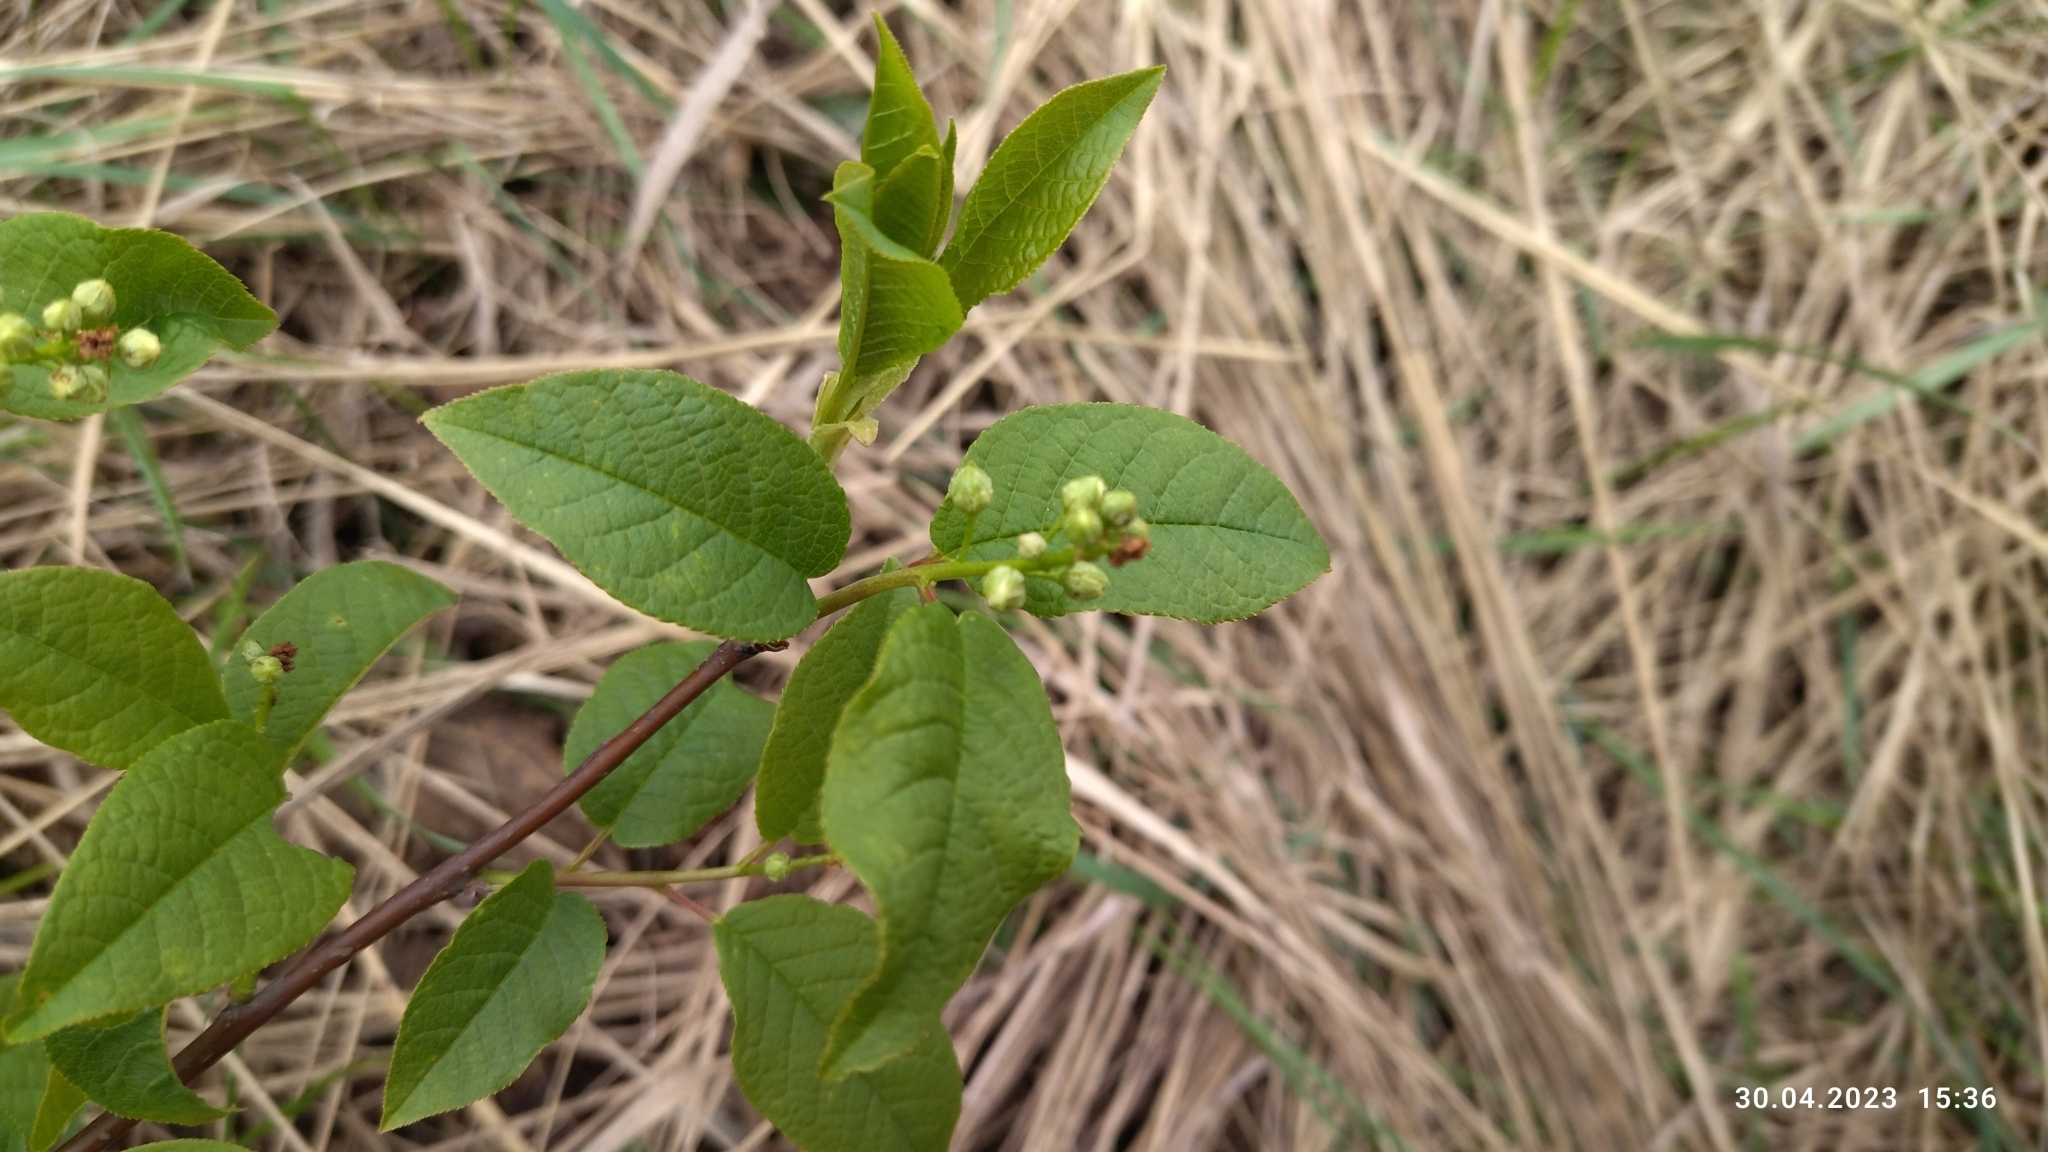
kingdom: Plantae
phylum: Tracheophyta
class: Magnoliopsida
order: Rosales
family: Rosaceae
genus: Prunus
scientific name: Prunus padus
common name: Bird cherry
